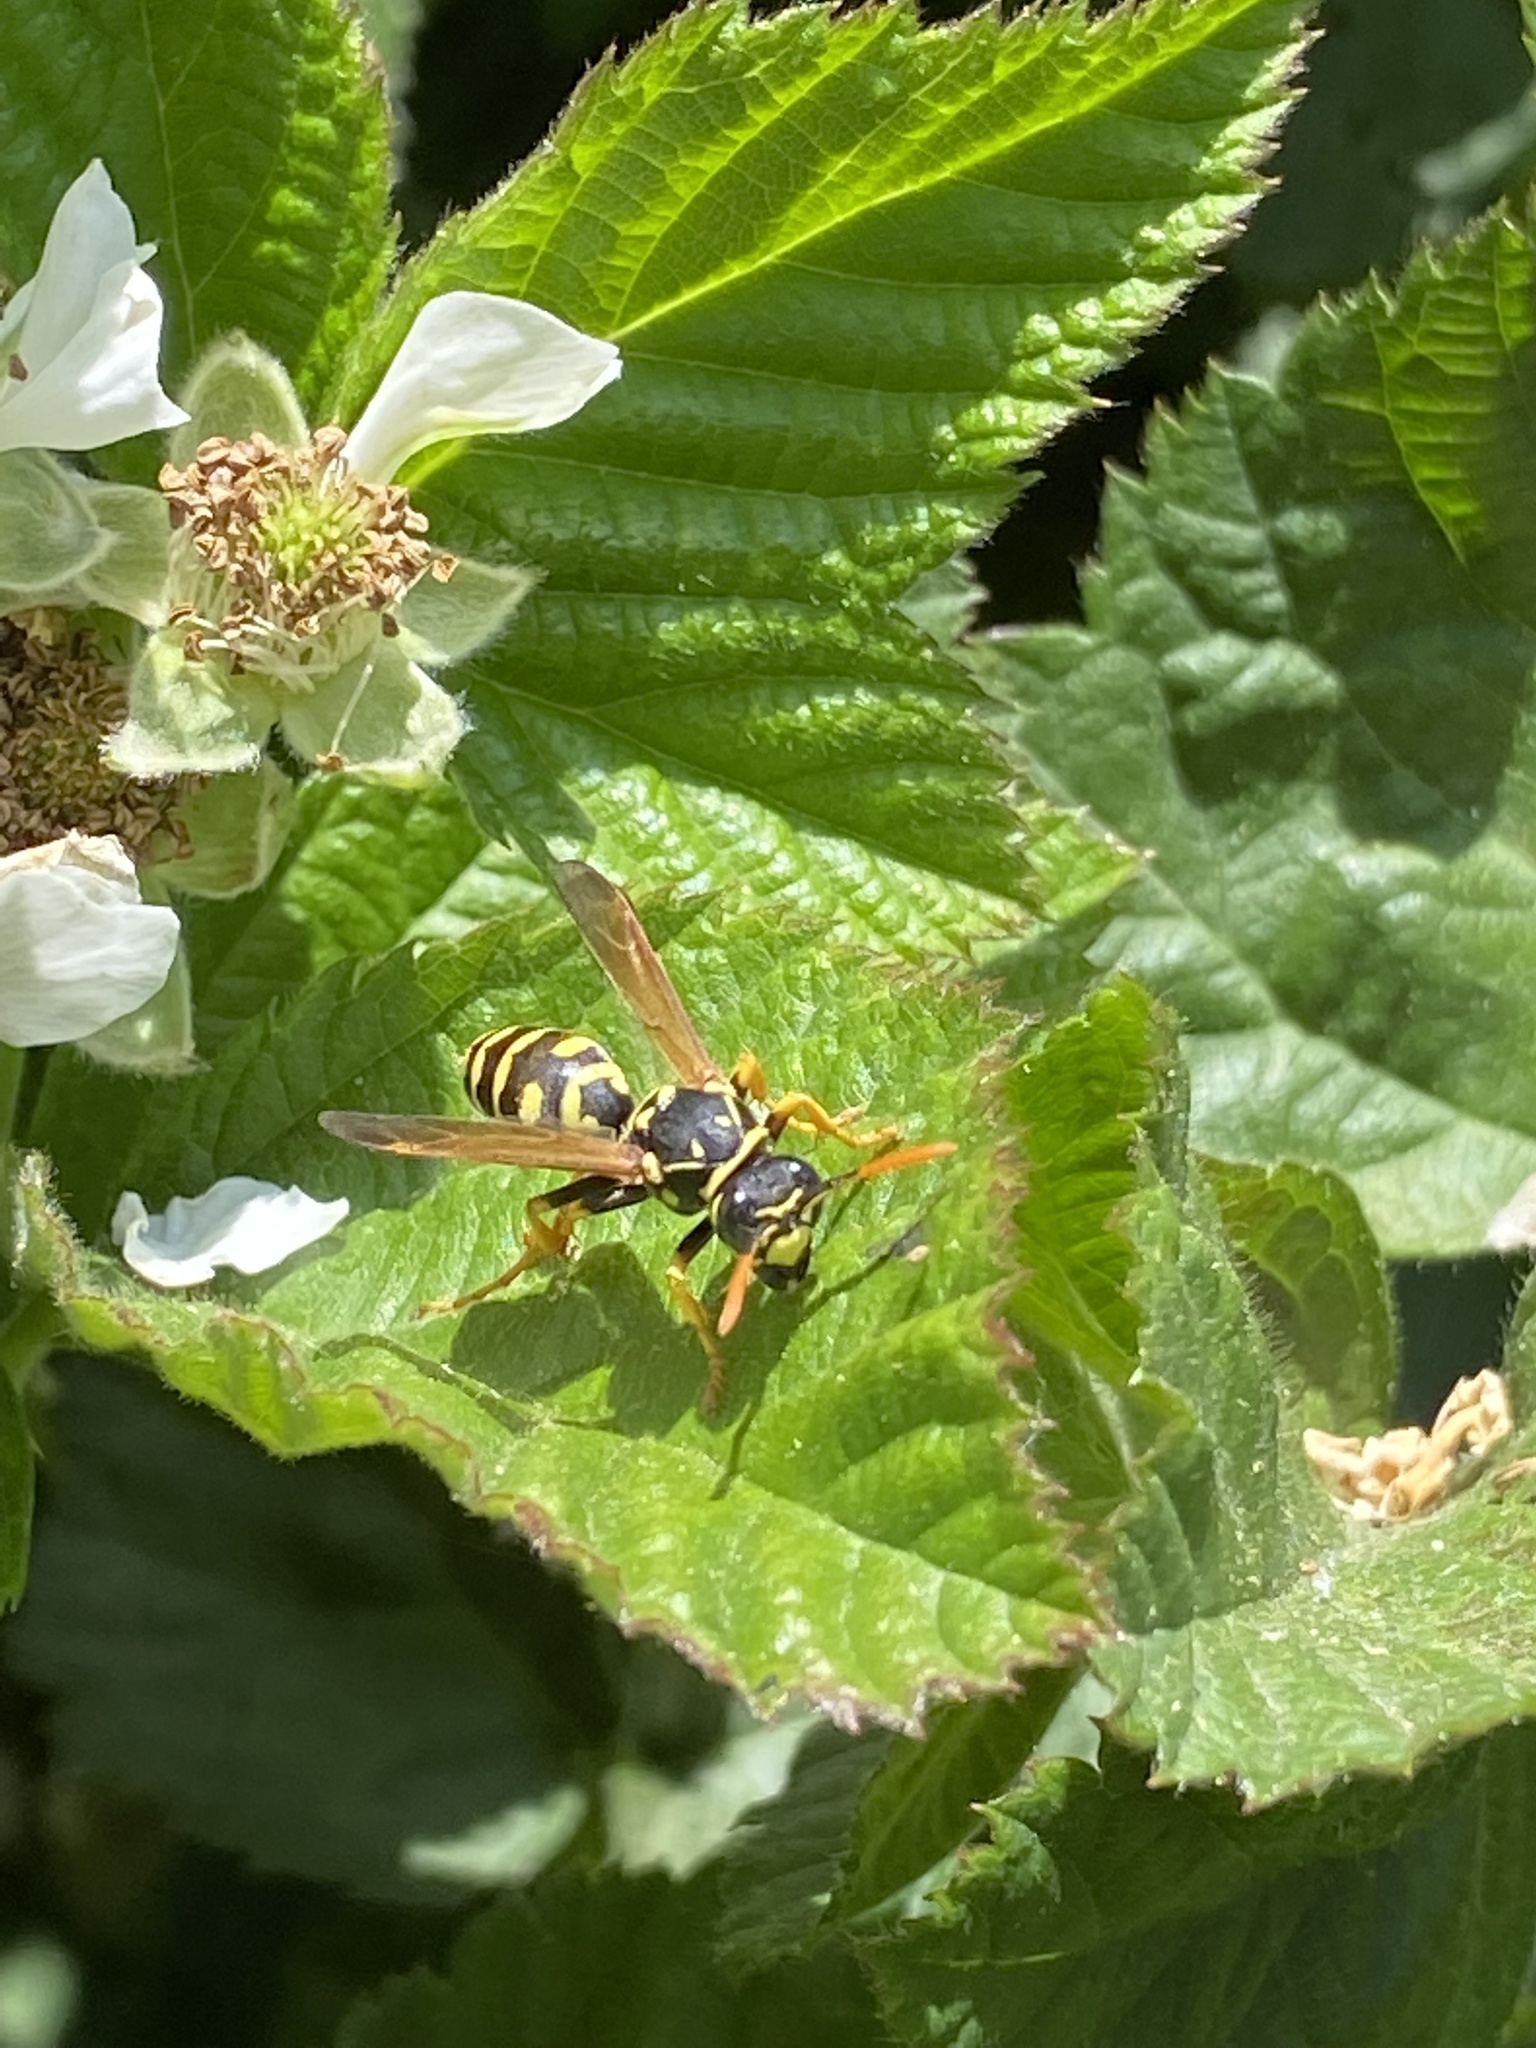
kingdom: Animalia
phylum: Arthropoda
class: Insecta
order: Hymenoptera
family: Eumenidae
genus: Polistes
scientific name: Polistes dominula
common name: Paper wasp
